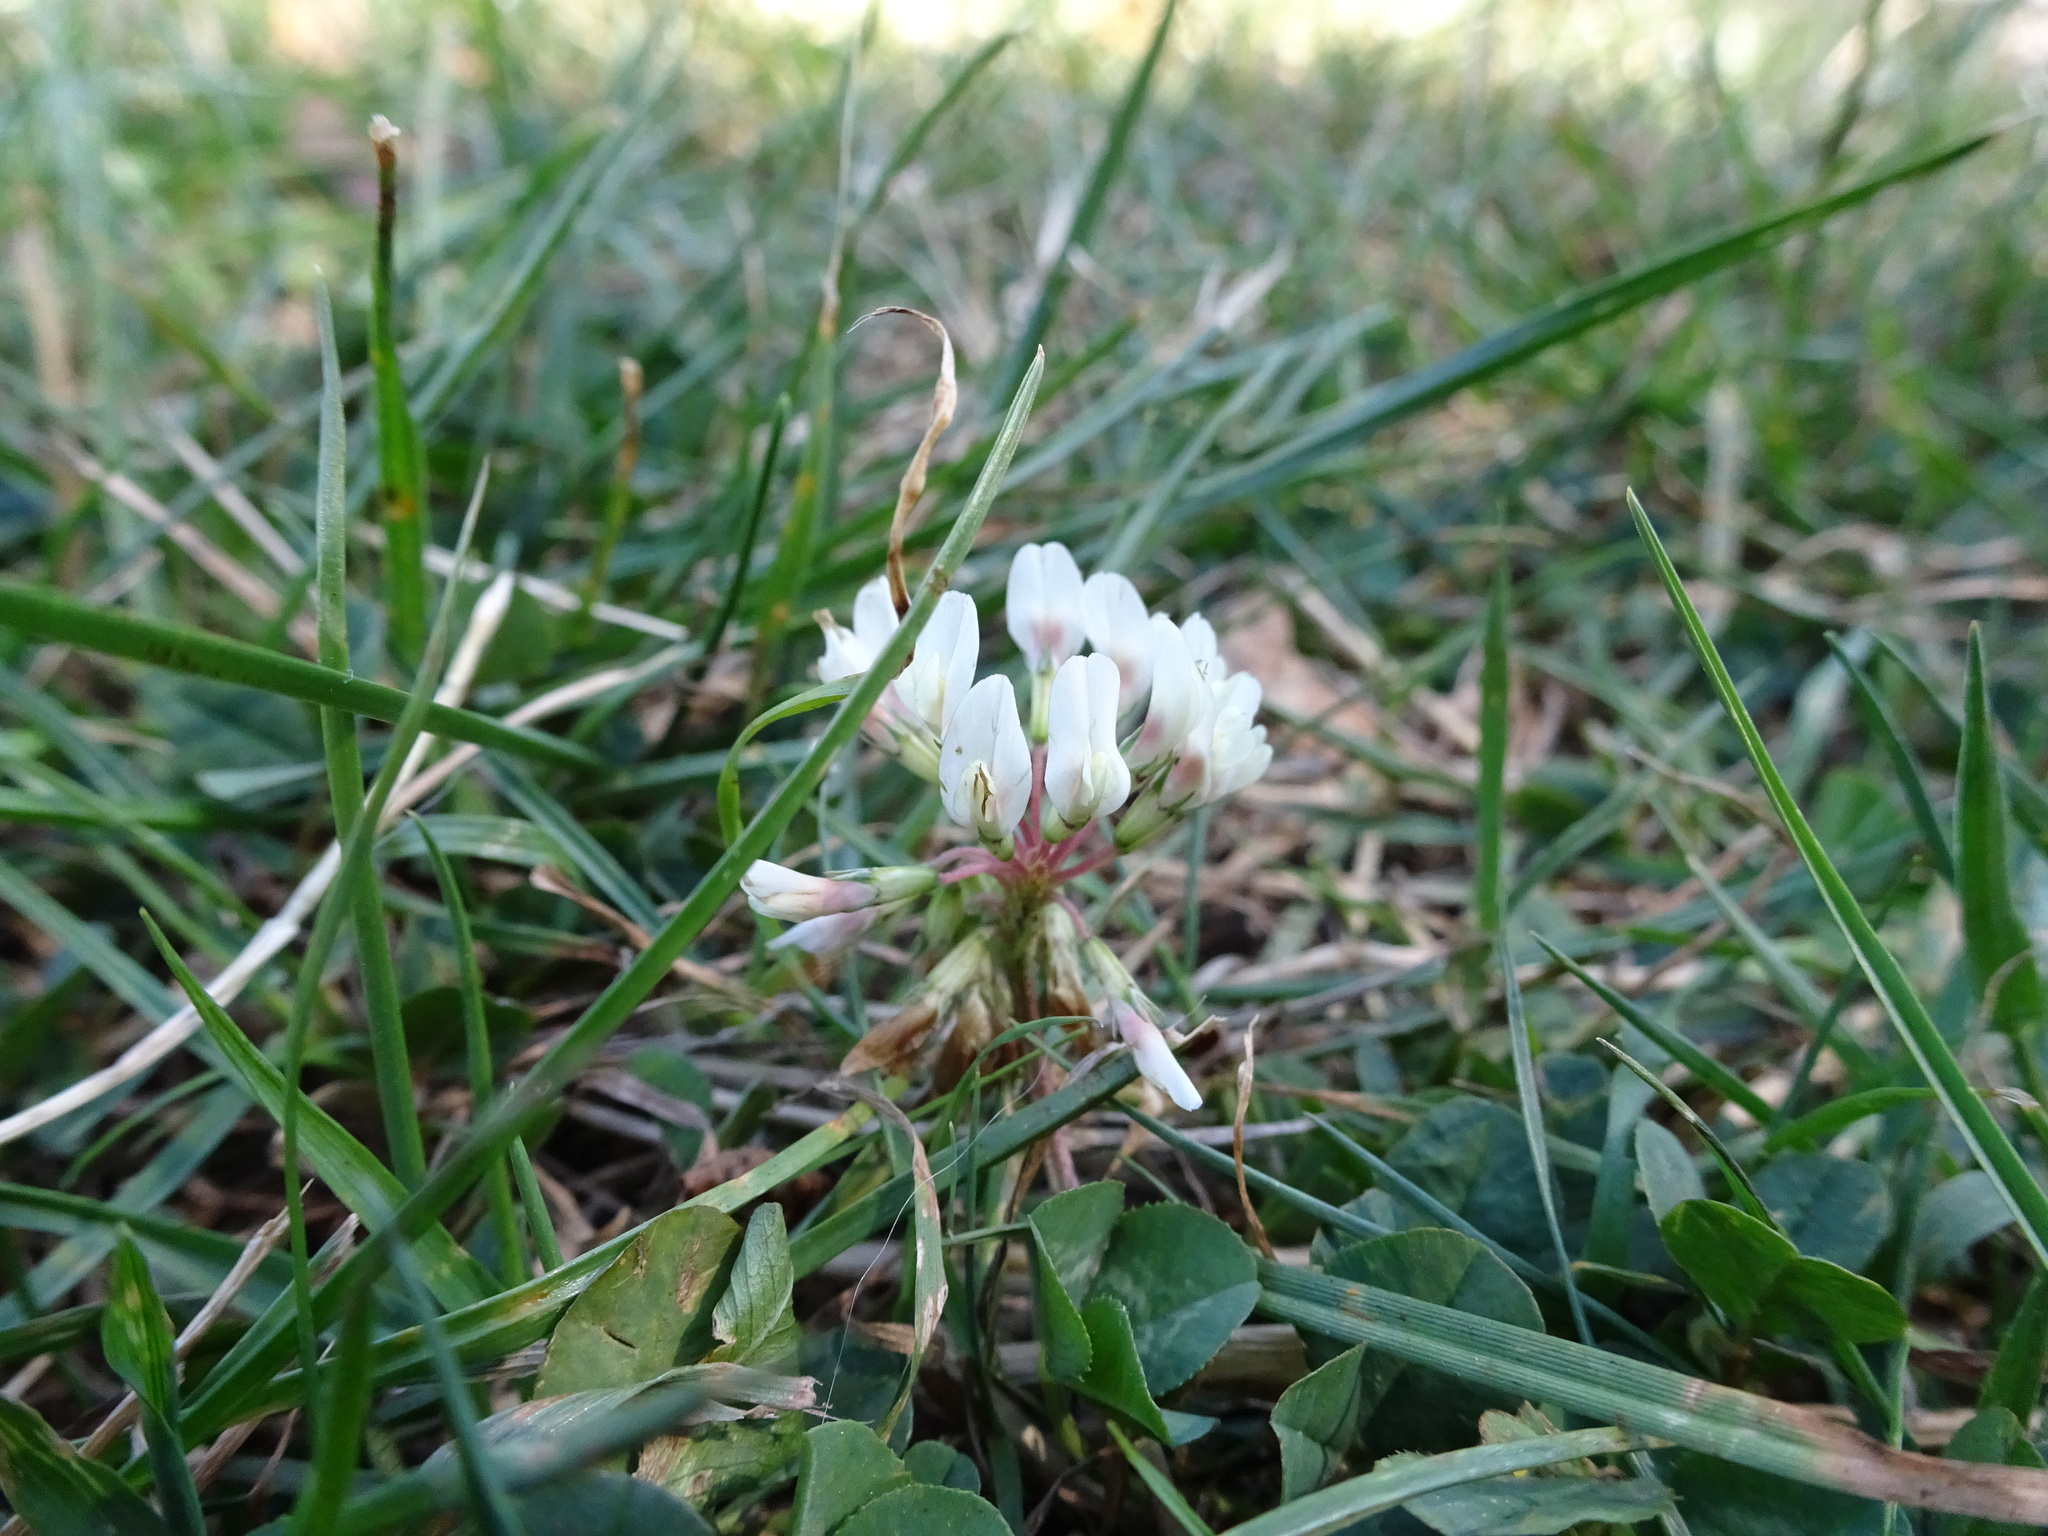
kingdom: Plantae
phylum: Tracheophyta
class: Magnoliopsida
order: Fabales
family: Fabaceae
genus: Trifolium
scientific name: Trifolium repens
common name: White clover
